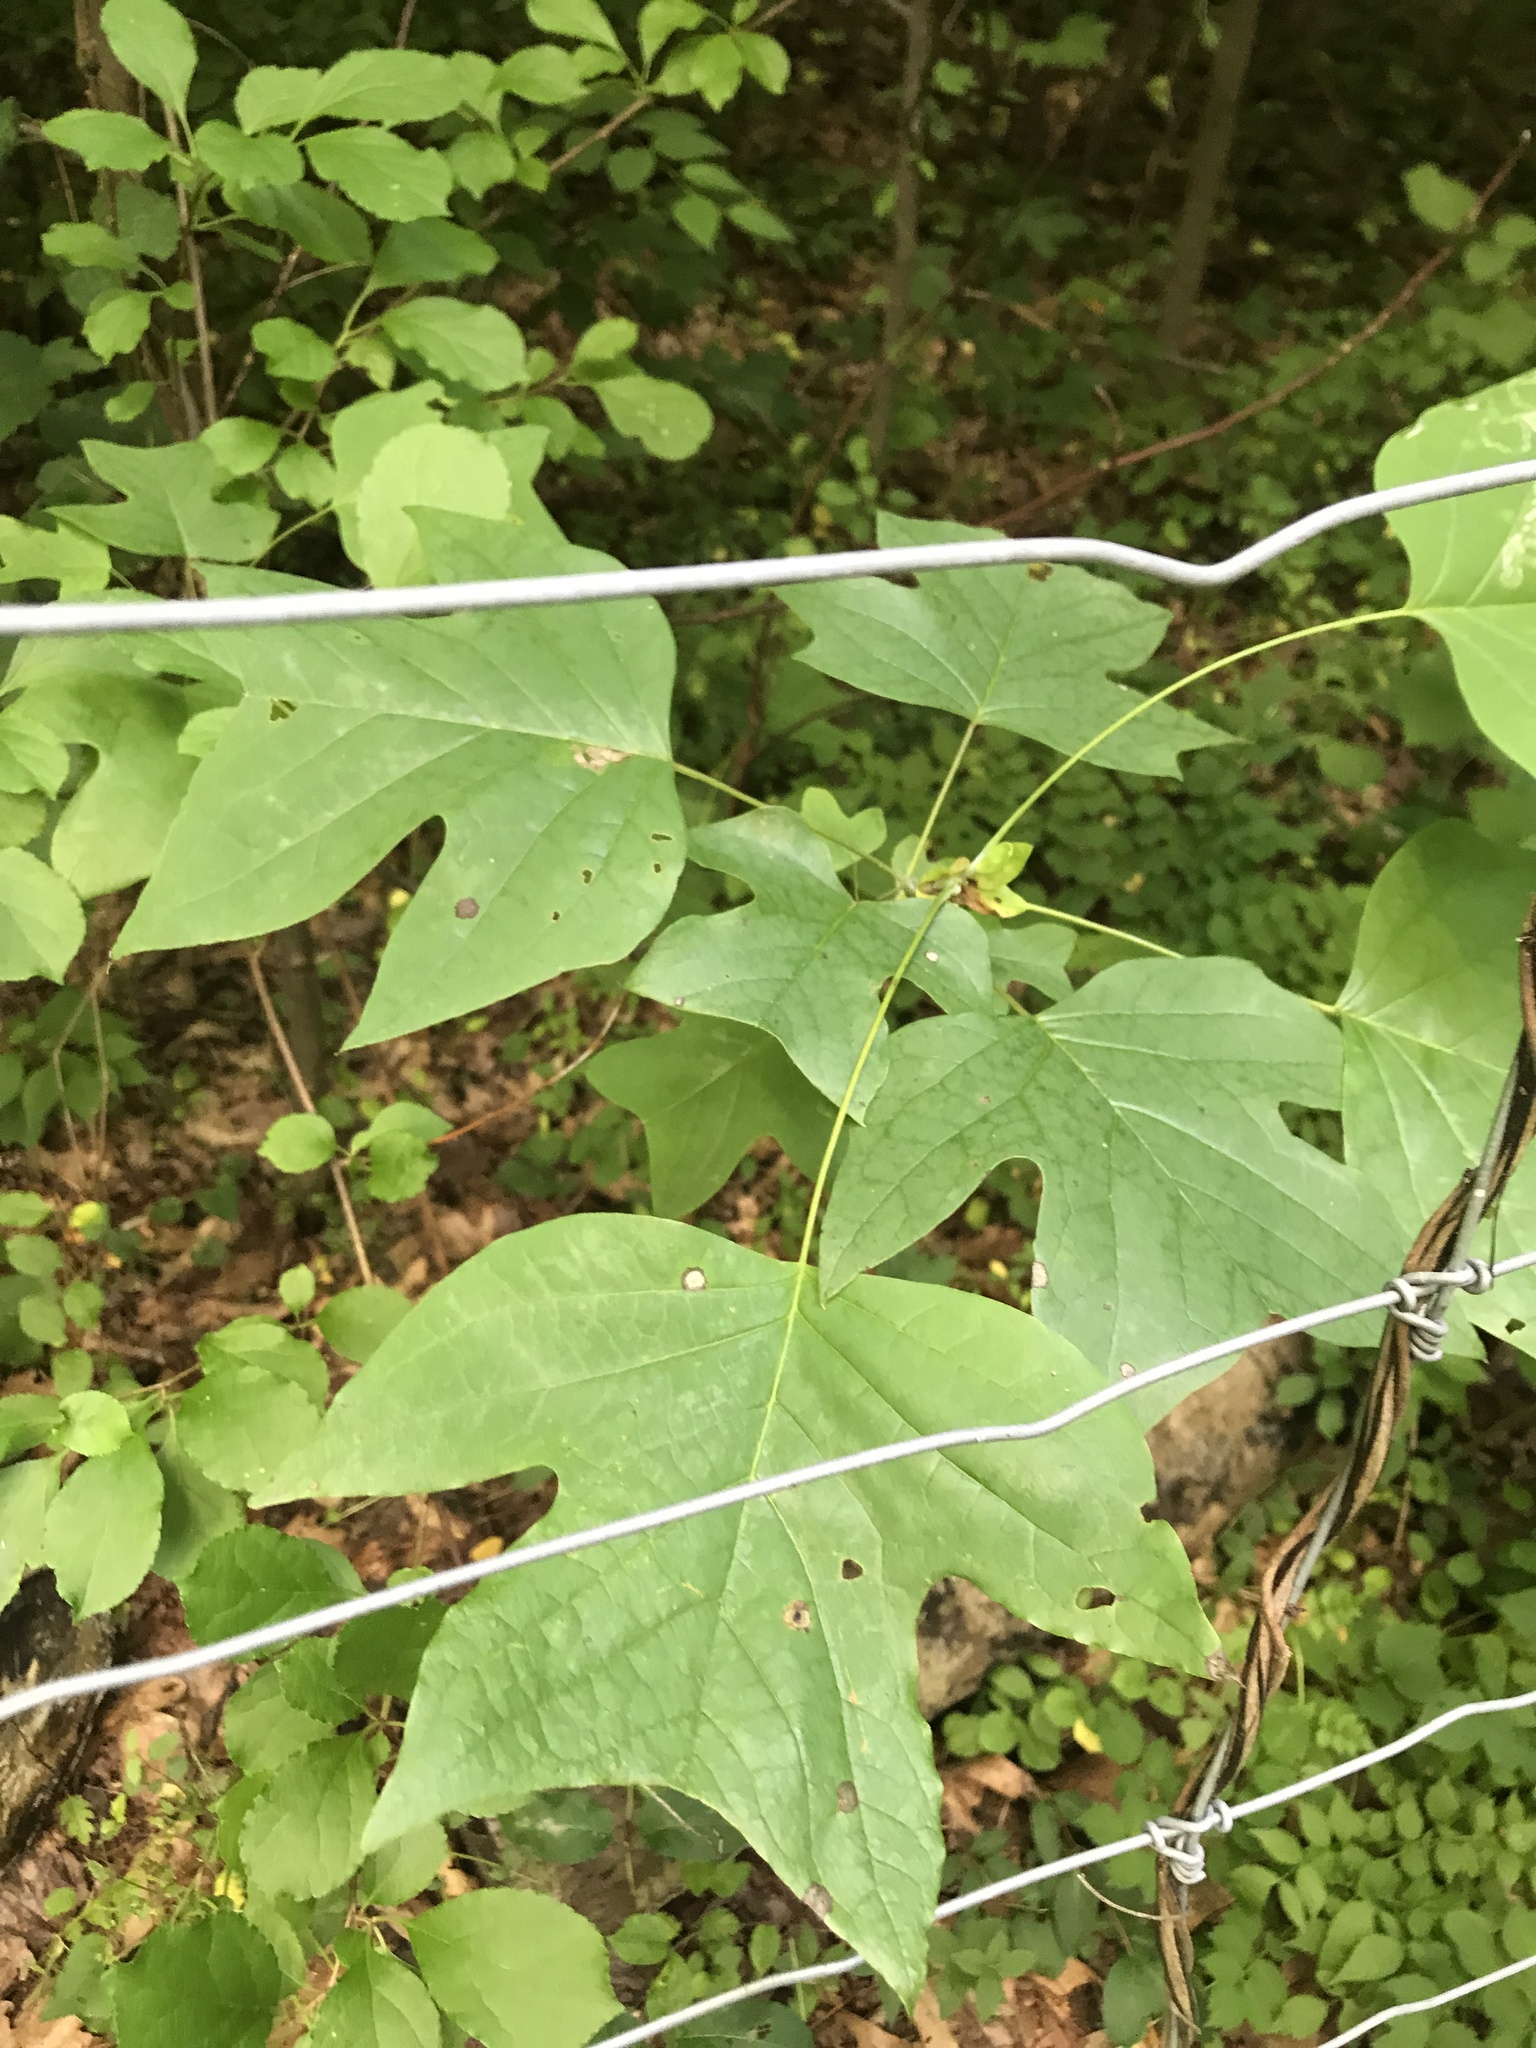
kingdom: Plantae
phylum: Tracheophyta
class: Magnoliopsida
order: Magnoliales
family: Magnoliaceae
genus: Liriodendron
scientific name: Liriodendron tulipifera
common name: Tulip tree
